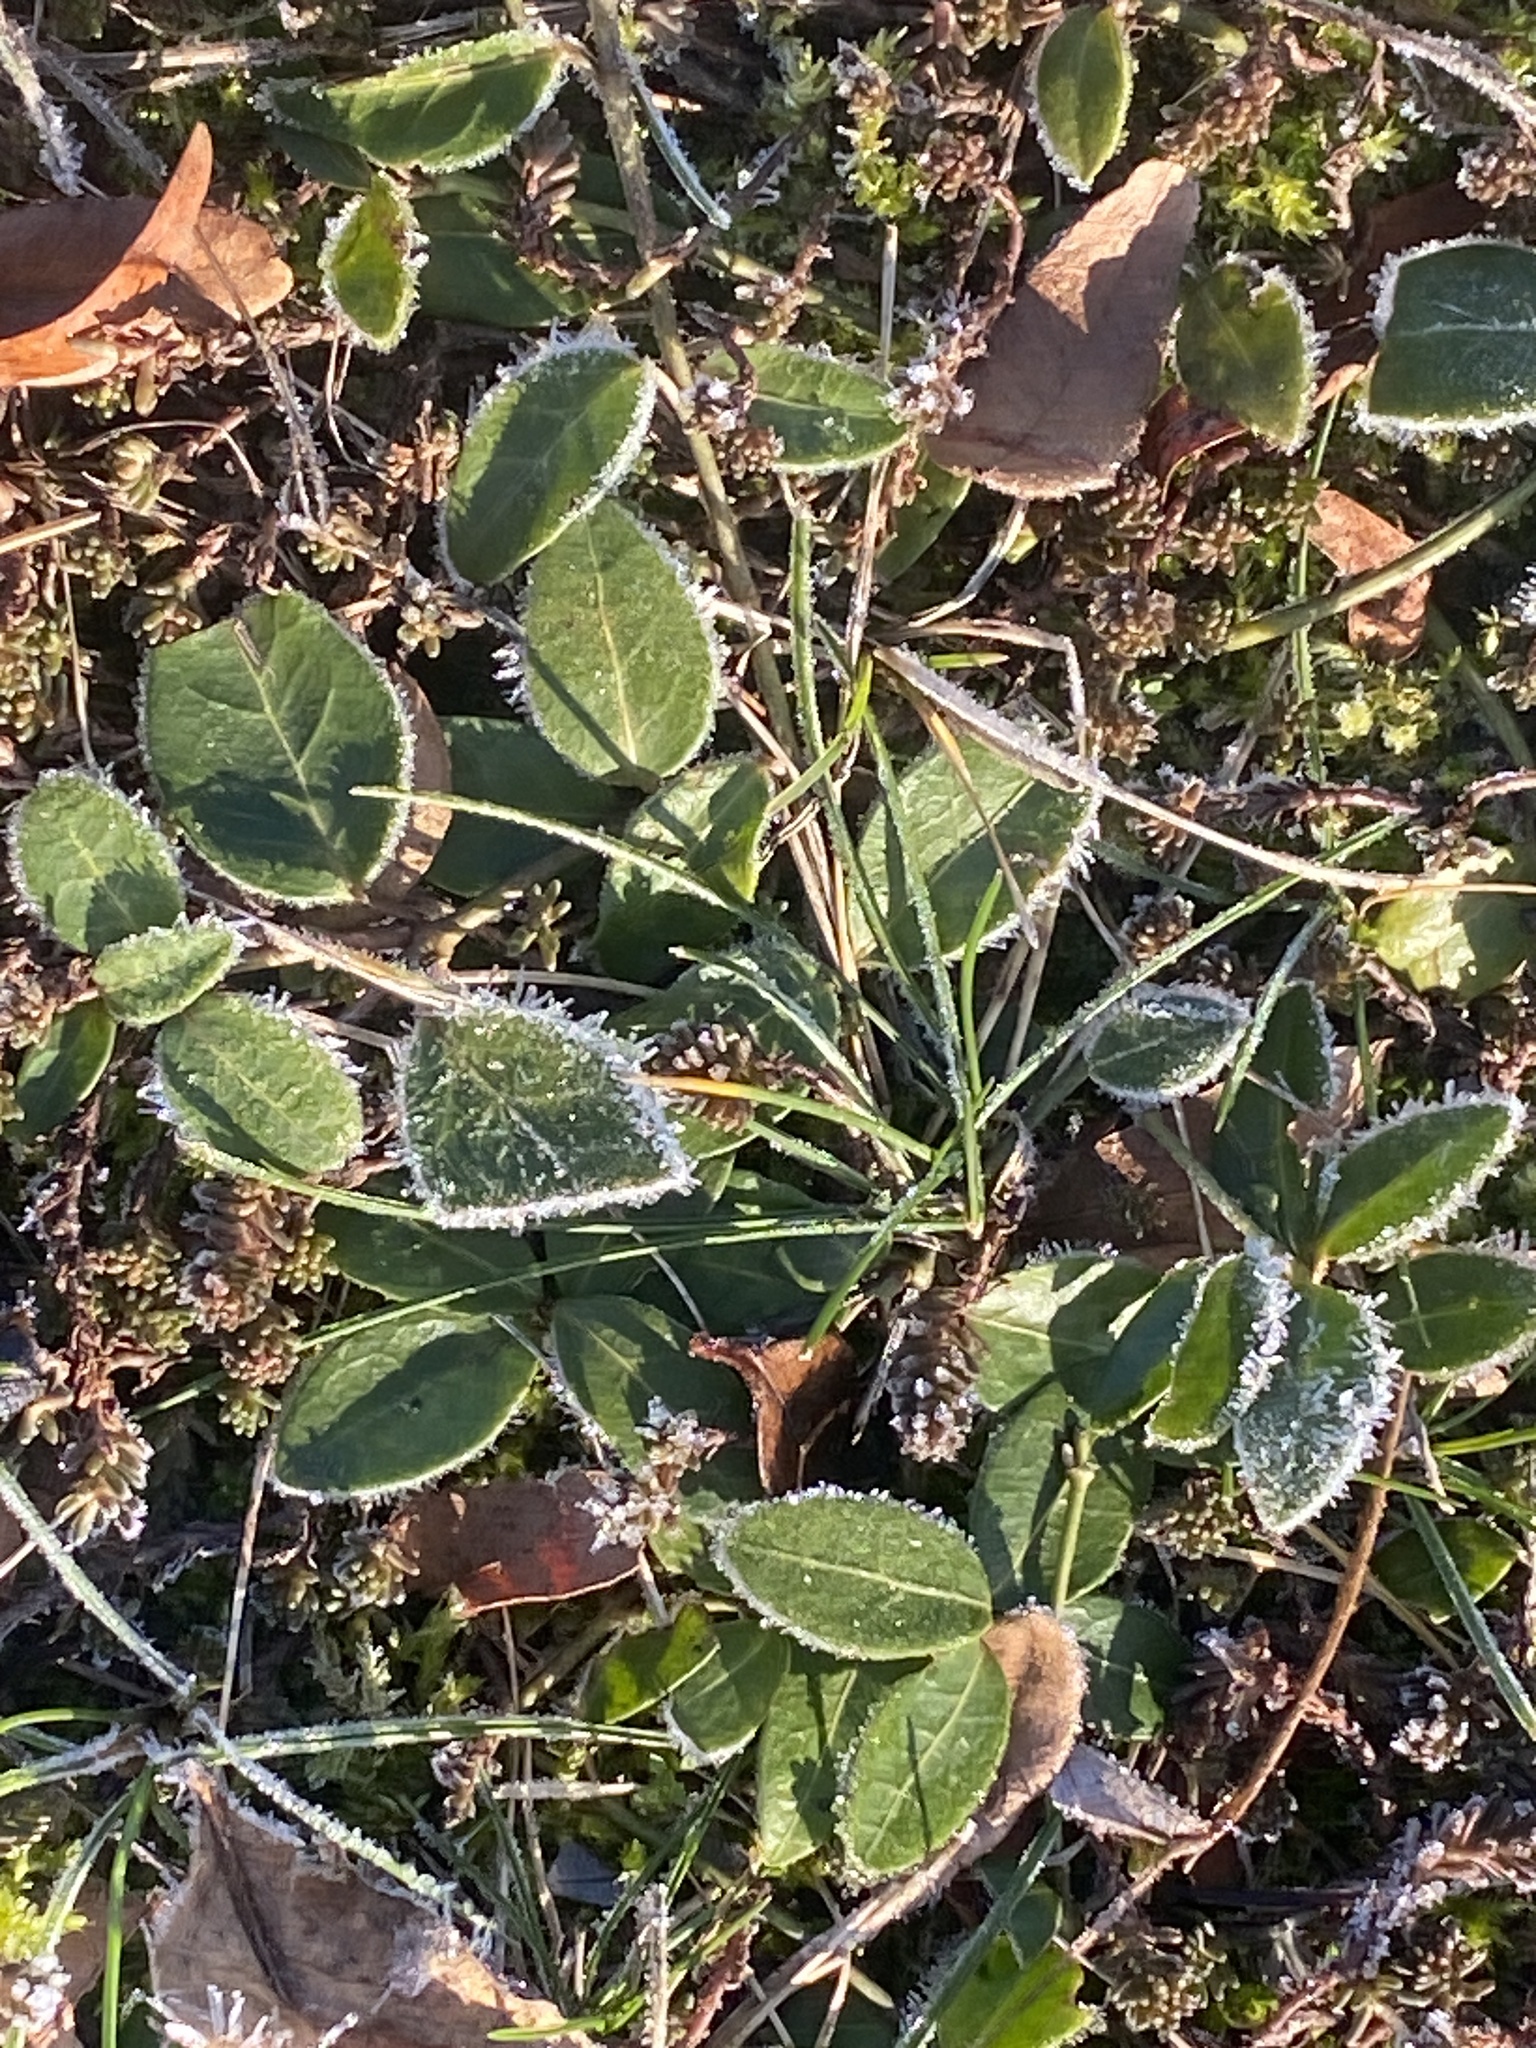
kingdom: Plantae
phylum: Tracheophyta
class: Magnoliopsida
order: Gentianales
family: Apocynaceae
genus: Vinca
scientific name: Vinca minor
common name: Lesser periwinkle
